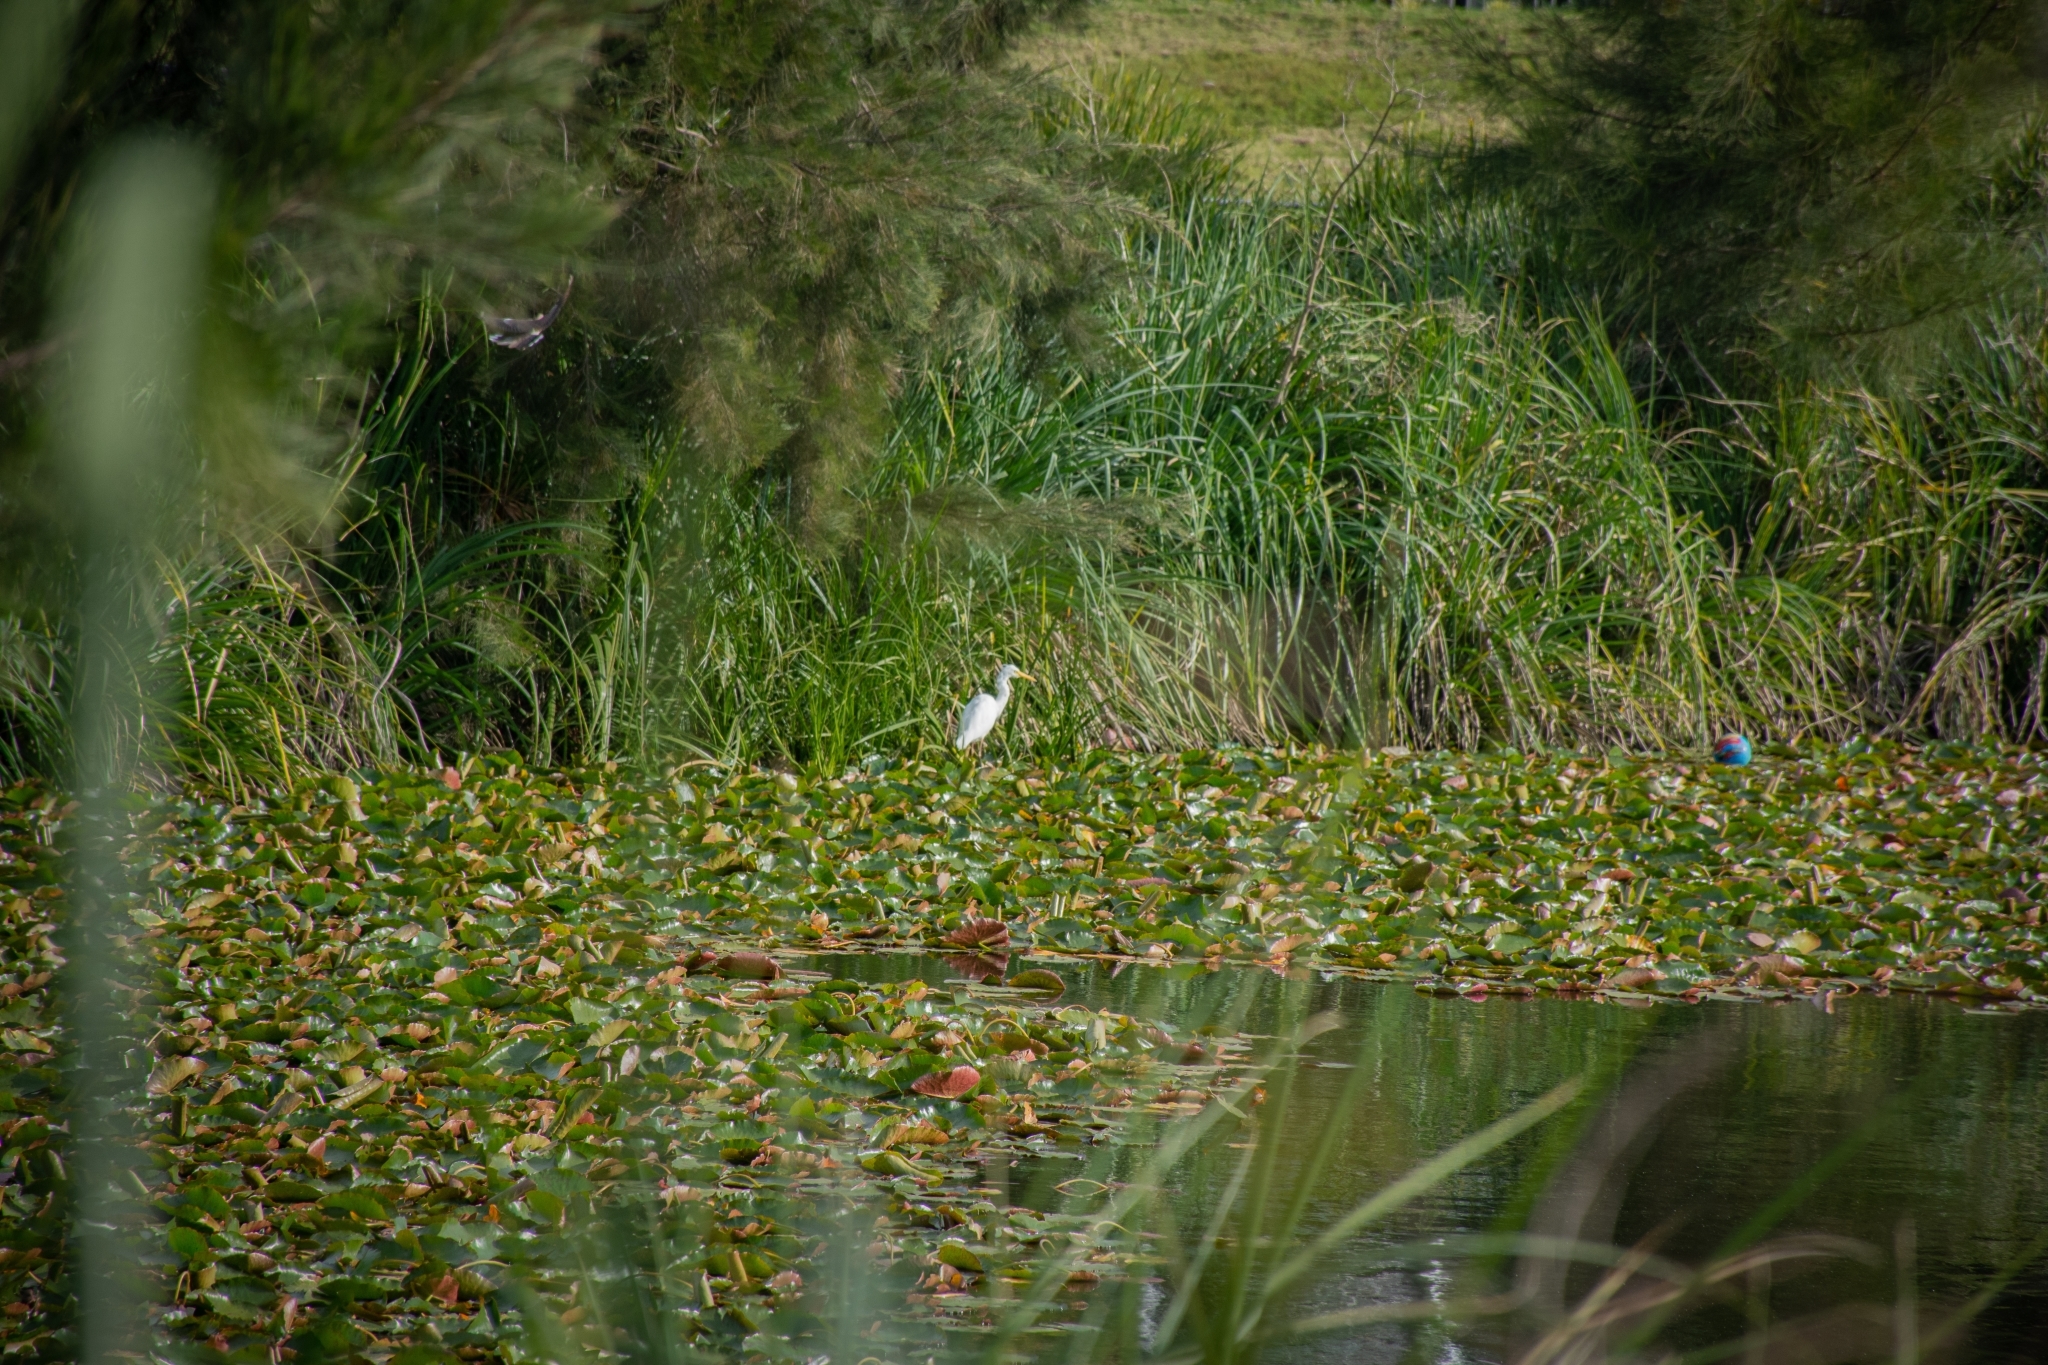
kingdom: Animalia
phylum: Chordata
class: Aves
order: Pelecaniformes
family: Ardeidae
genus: Ardea
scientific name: Ardea alba
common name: Great egret
